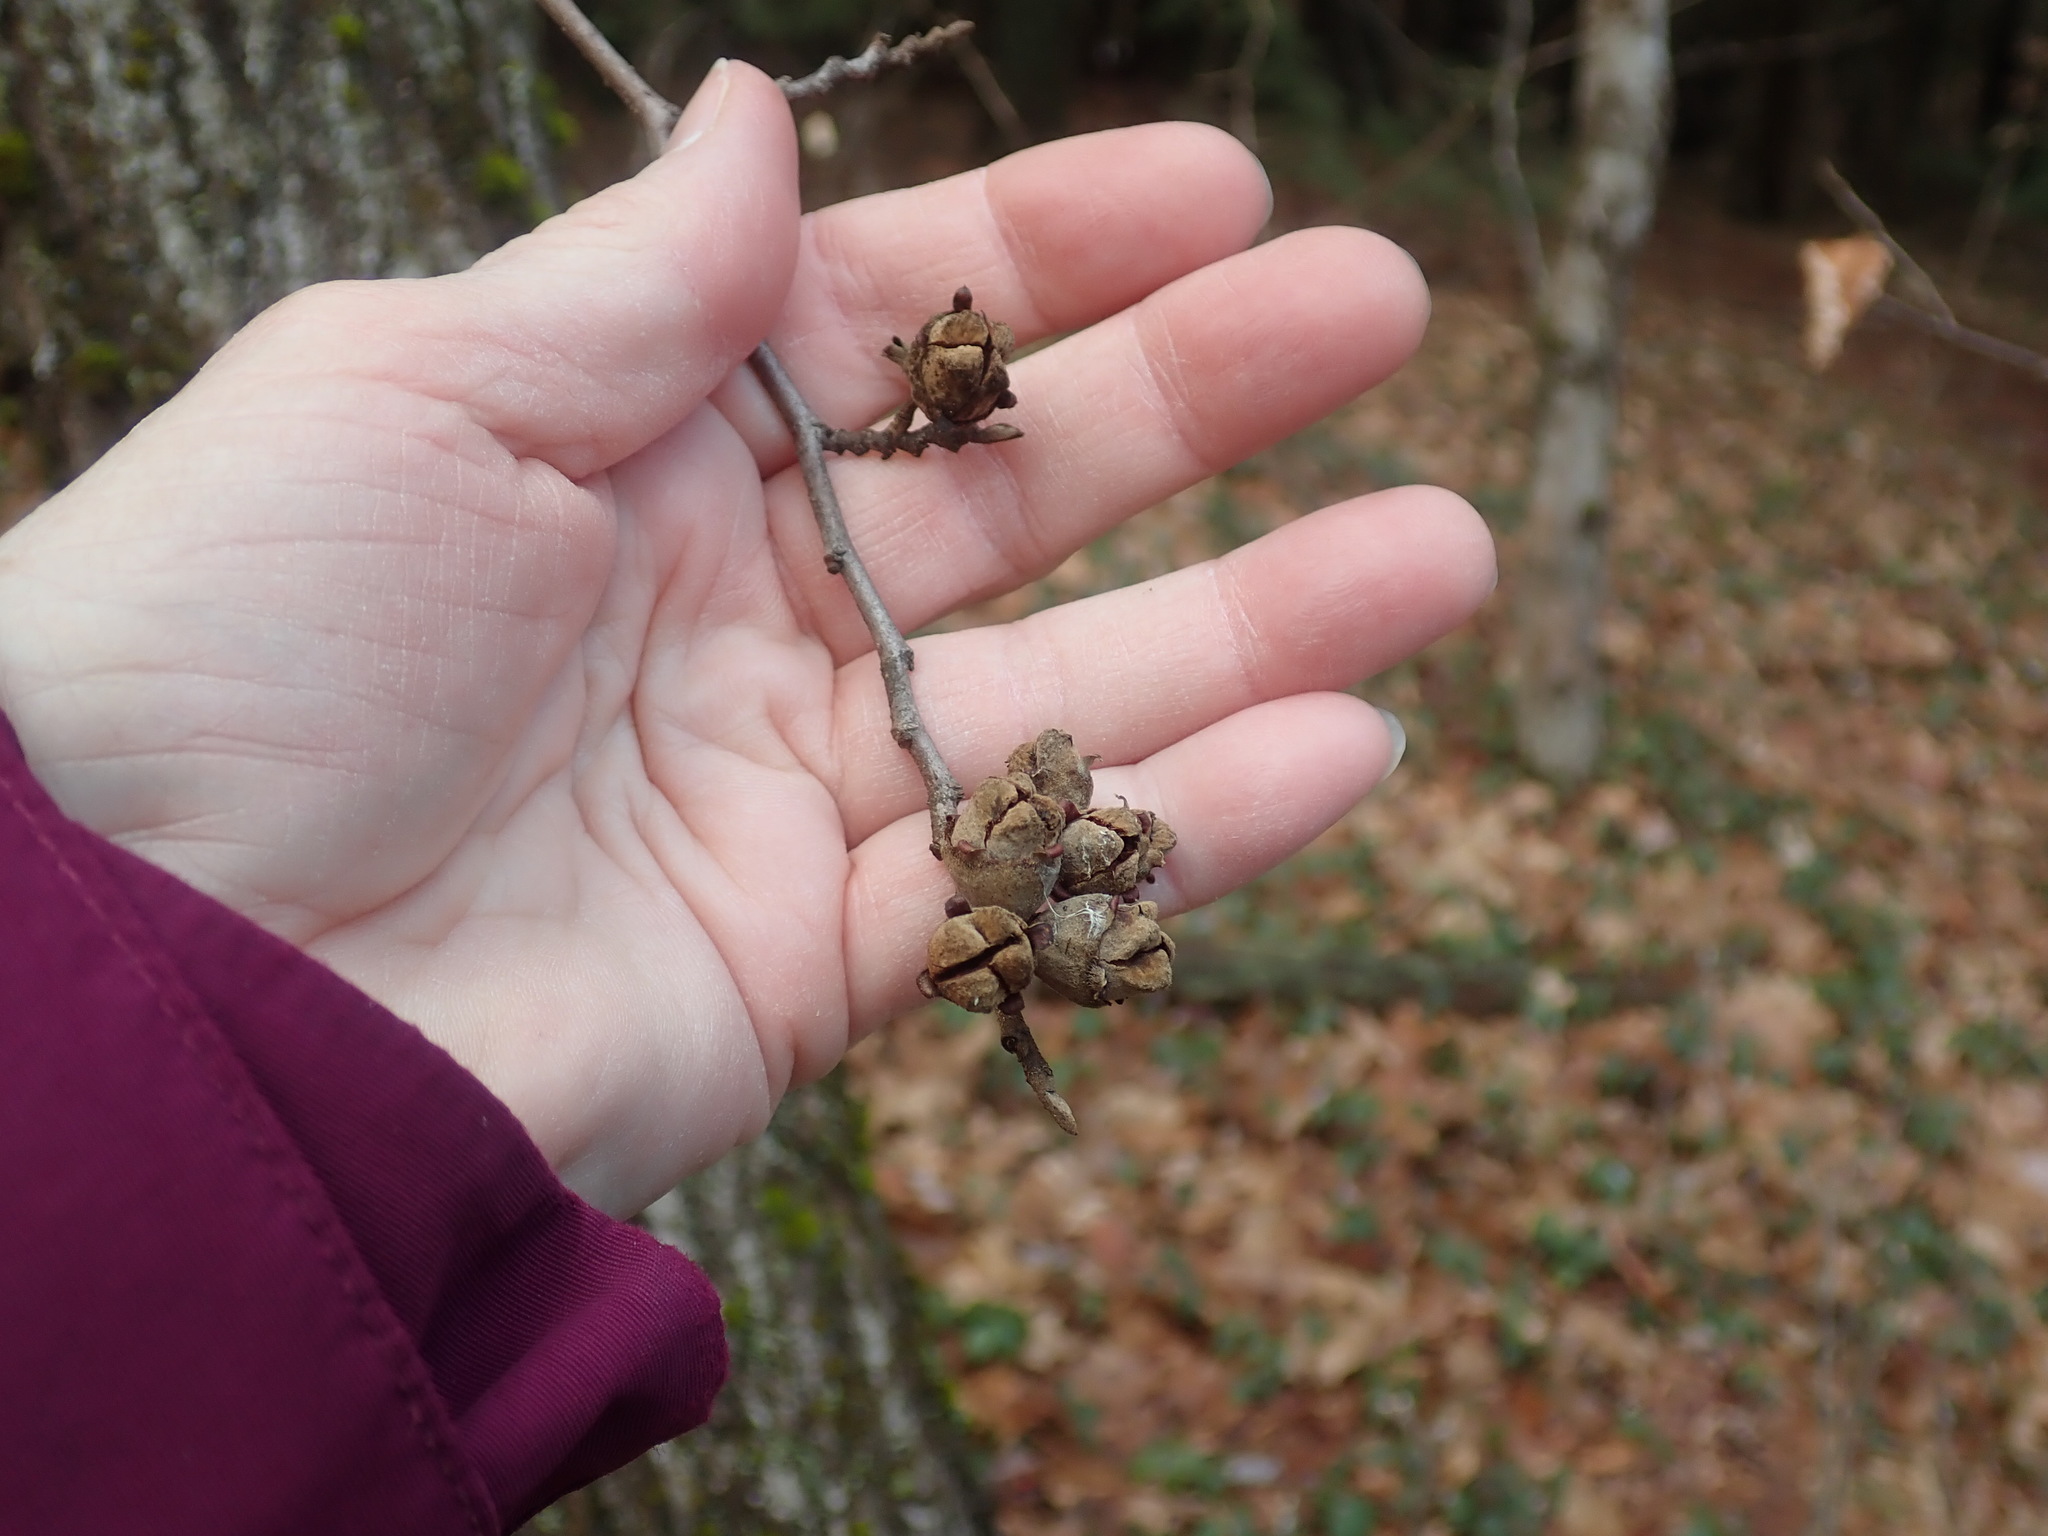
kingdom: Plantae
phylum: Tracheophyta
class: Magnoliopsida
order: Saxifragales
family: Hamamelidaceae
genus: Hamamelis
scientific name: Hamamelis virginiana
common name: Witch-hazel
